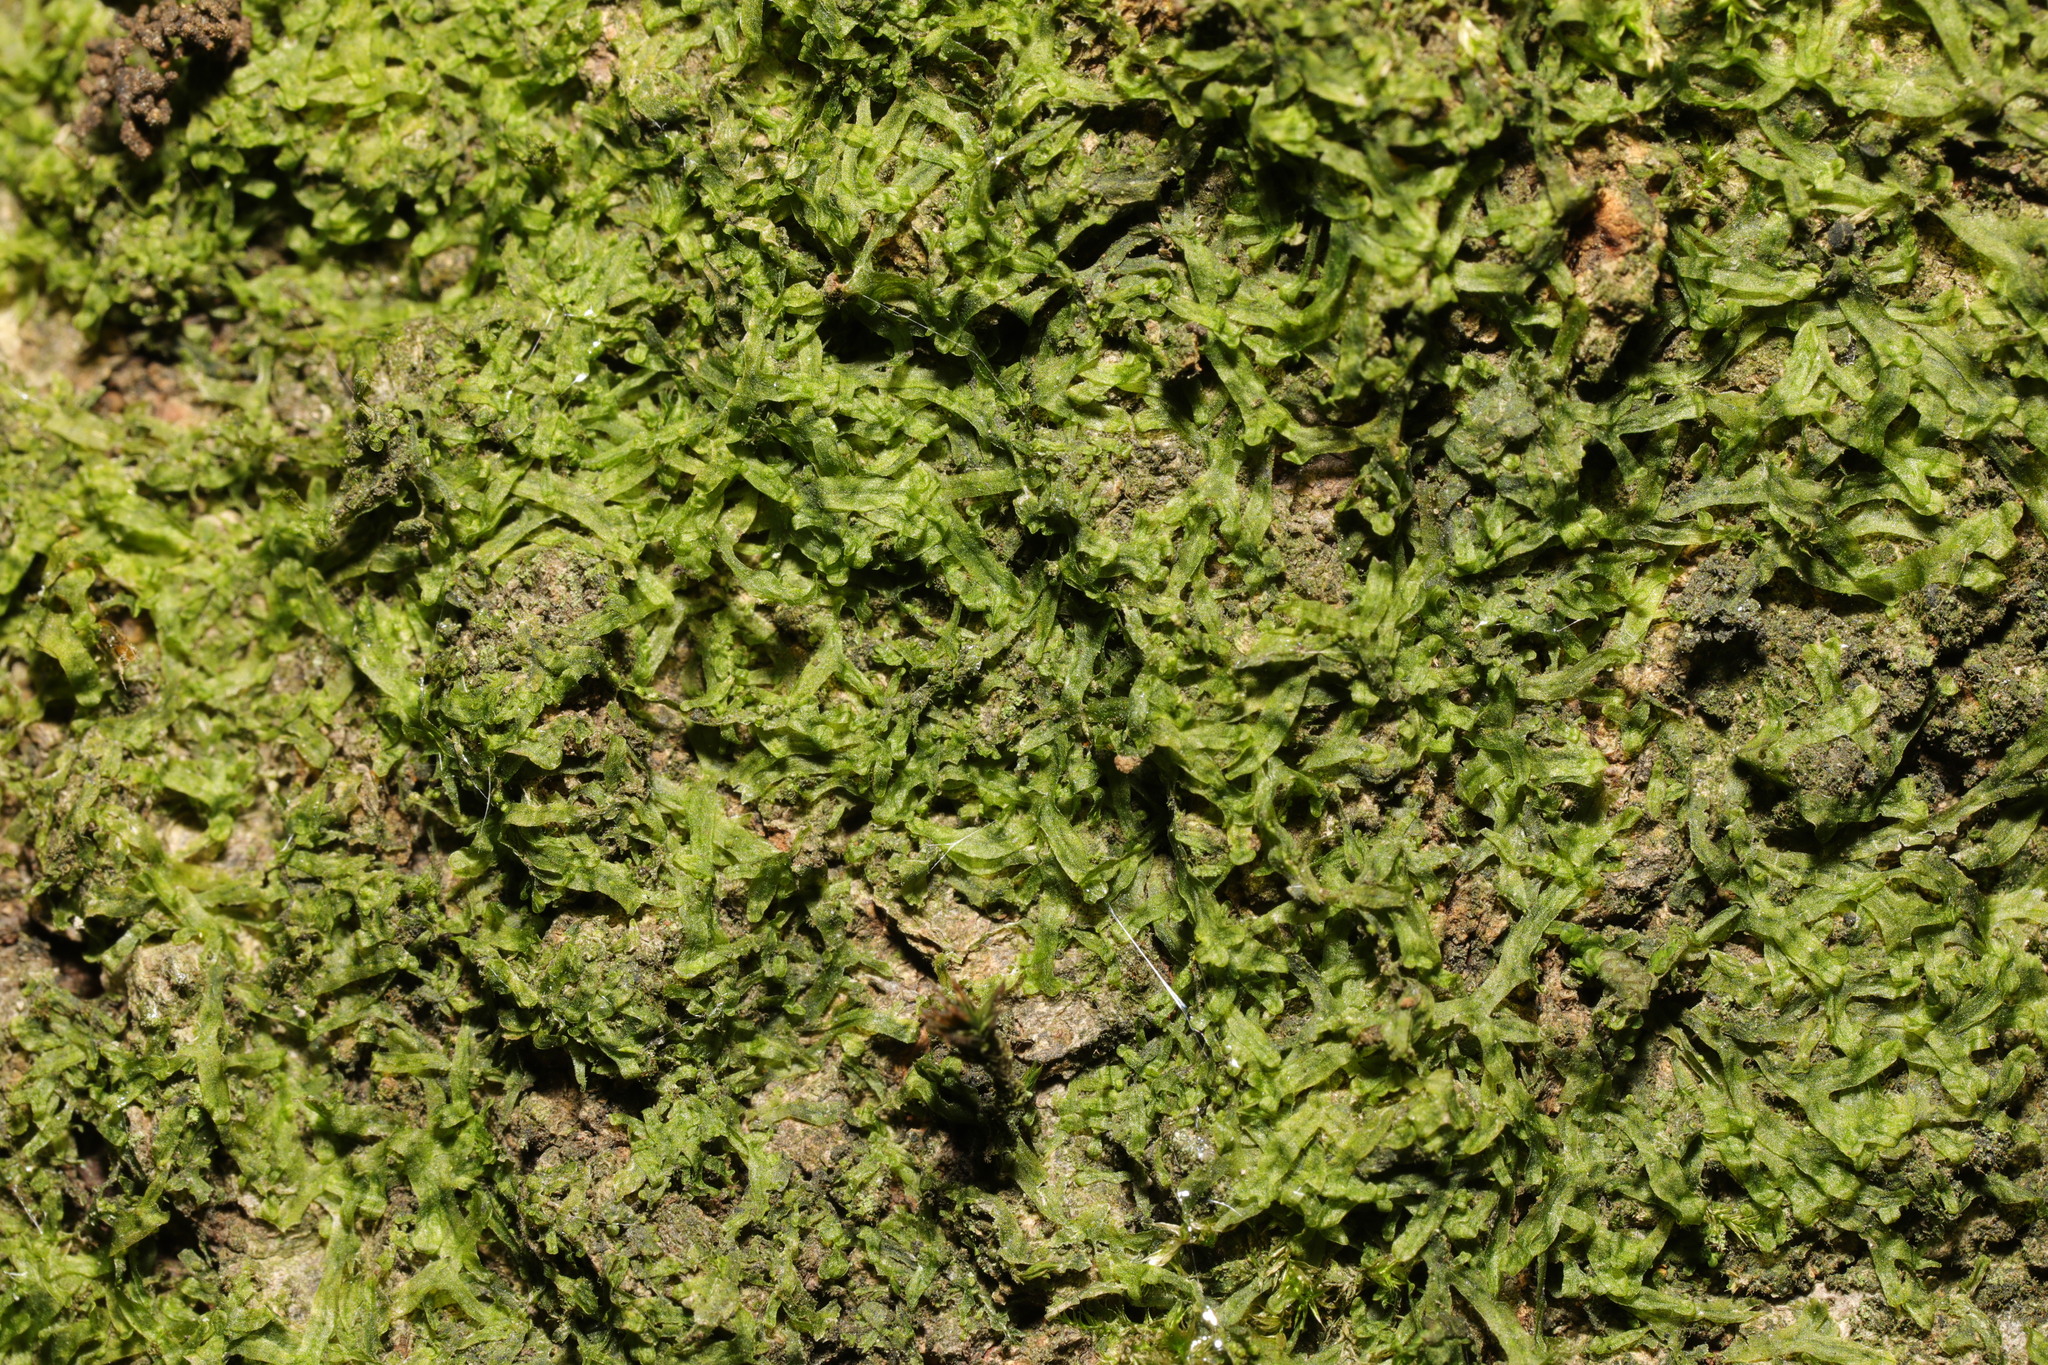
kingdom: Plantae
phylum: Marchantiophyta
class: Jungermanniopsida
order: Metzgeriales
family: Metzgeriaceae
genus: Metzgeria
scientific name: Metzgeria furcata
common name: Forked veilwort
